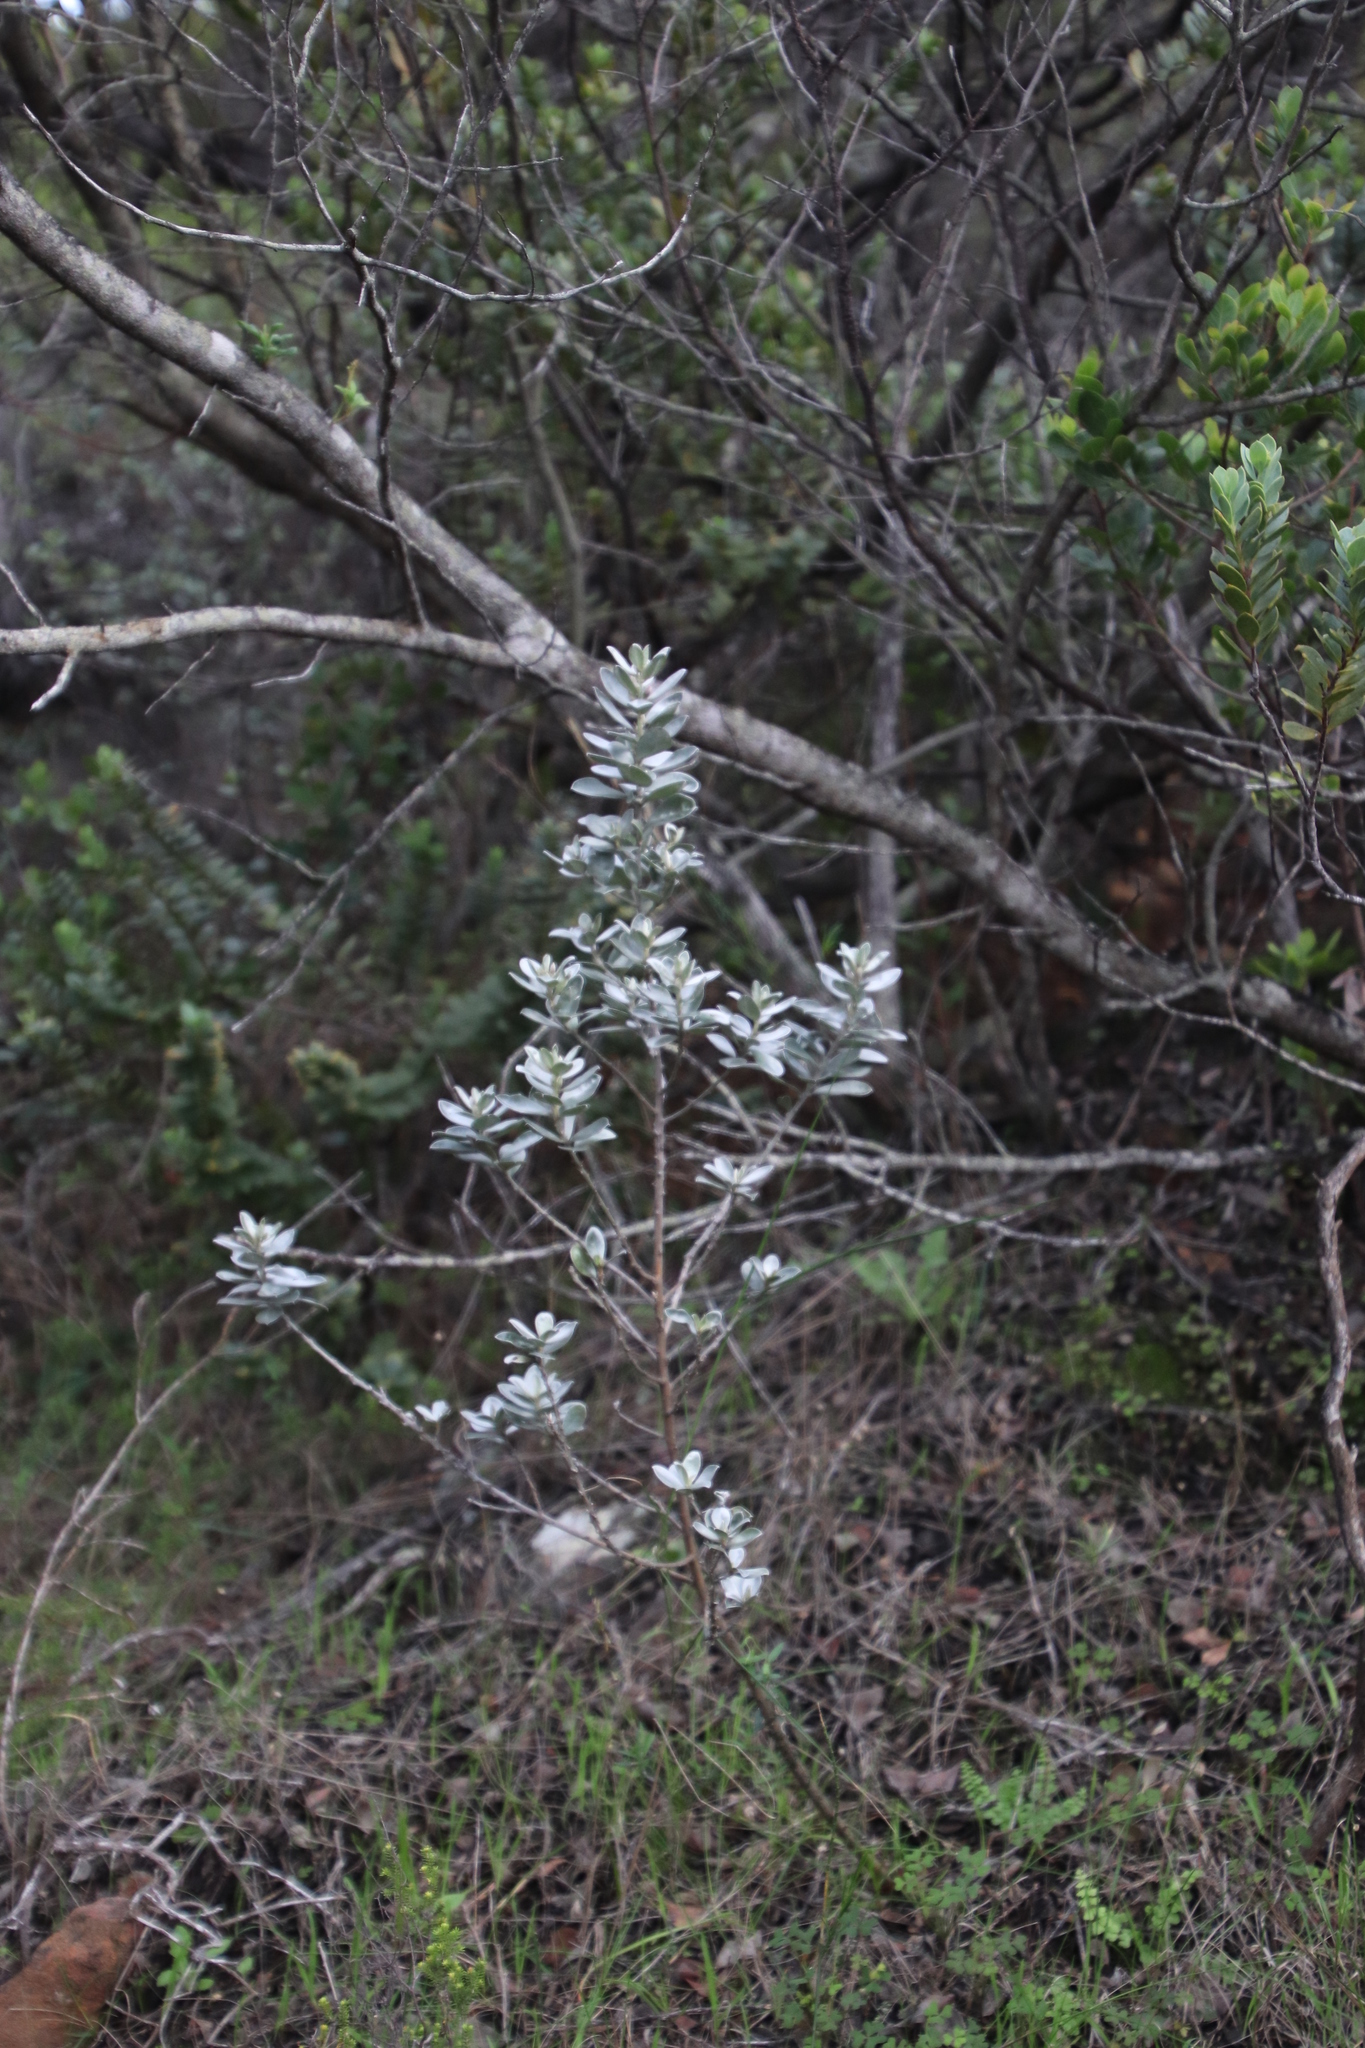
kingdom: Plantae
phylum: Tracheophyta
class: Magnoliopsida
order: Fabales
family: Fabaceae
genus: Podalyria
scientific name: Podalyria sericea
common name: Silver podalyria
